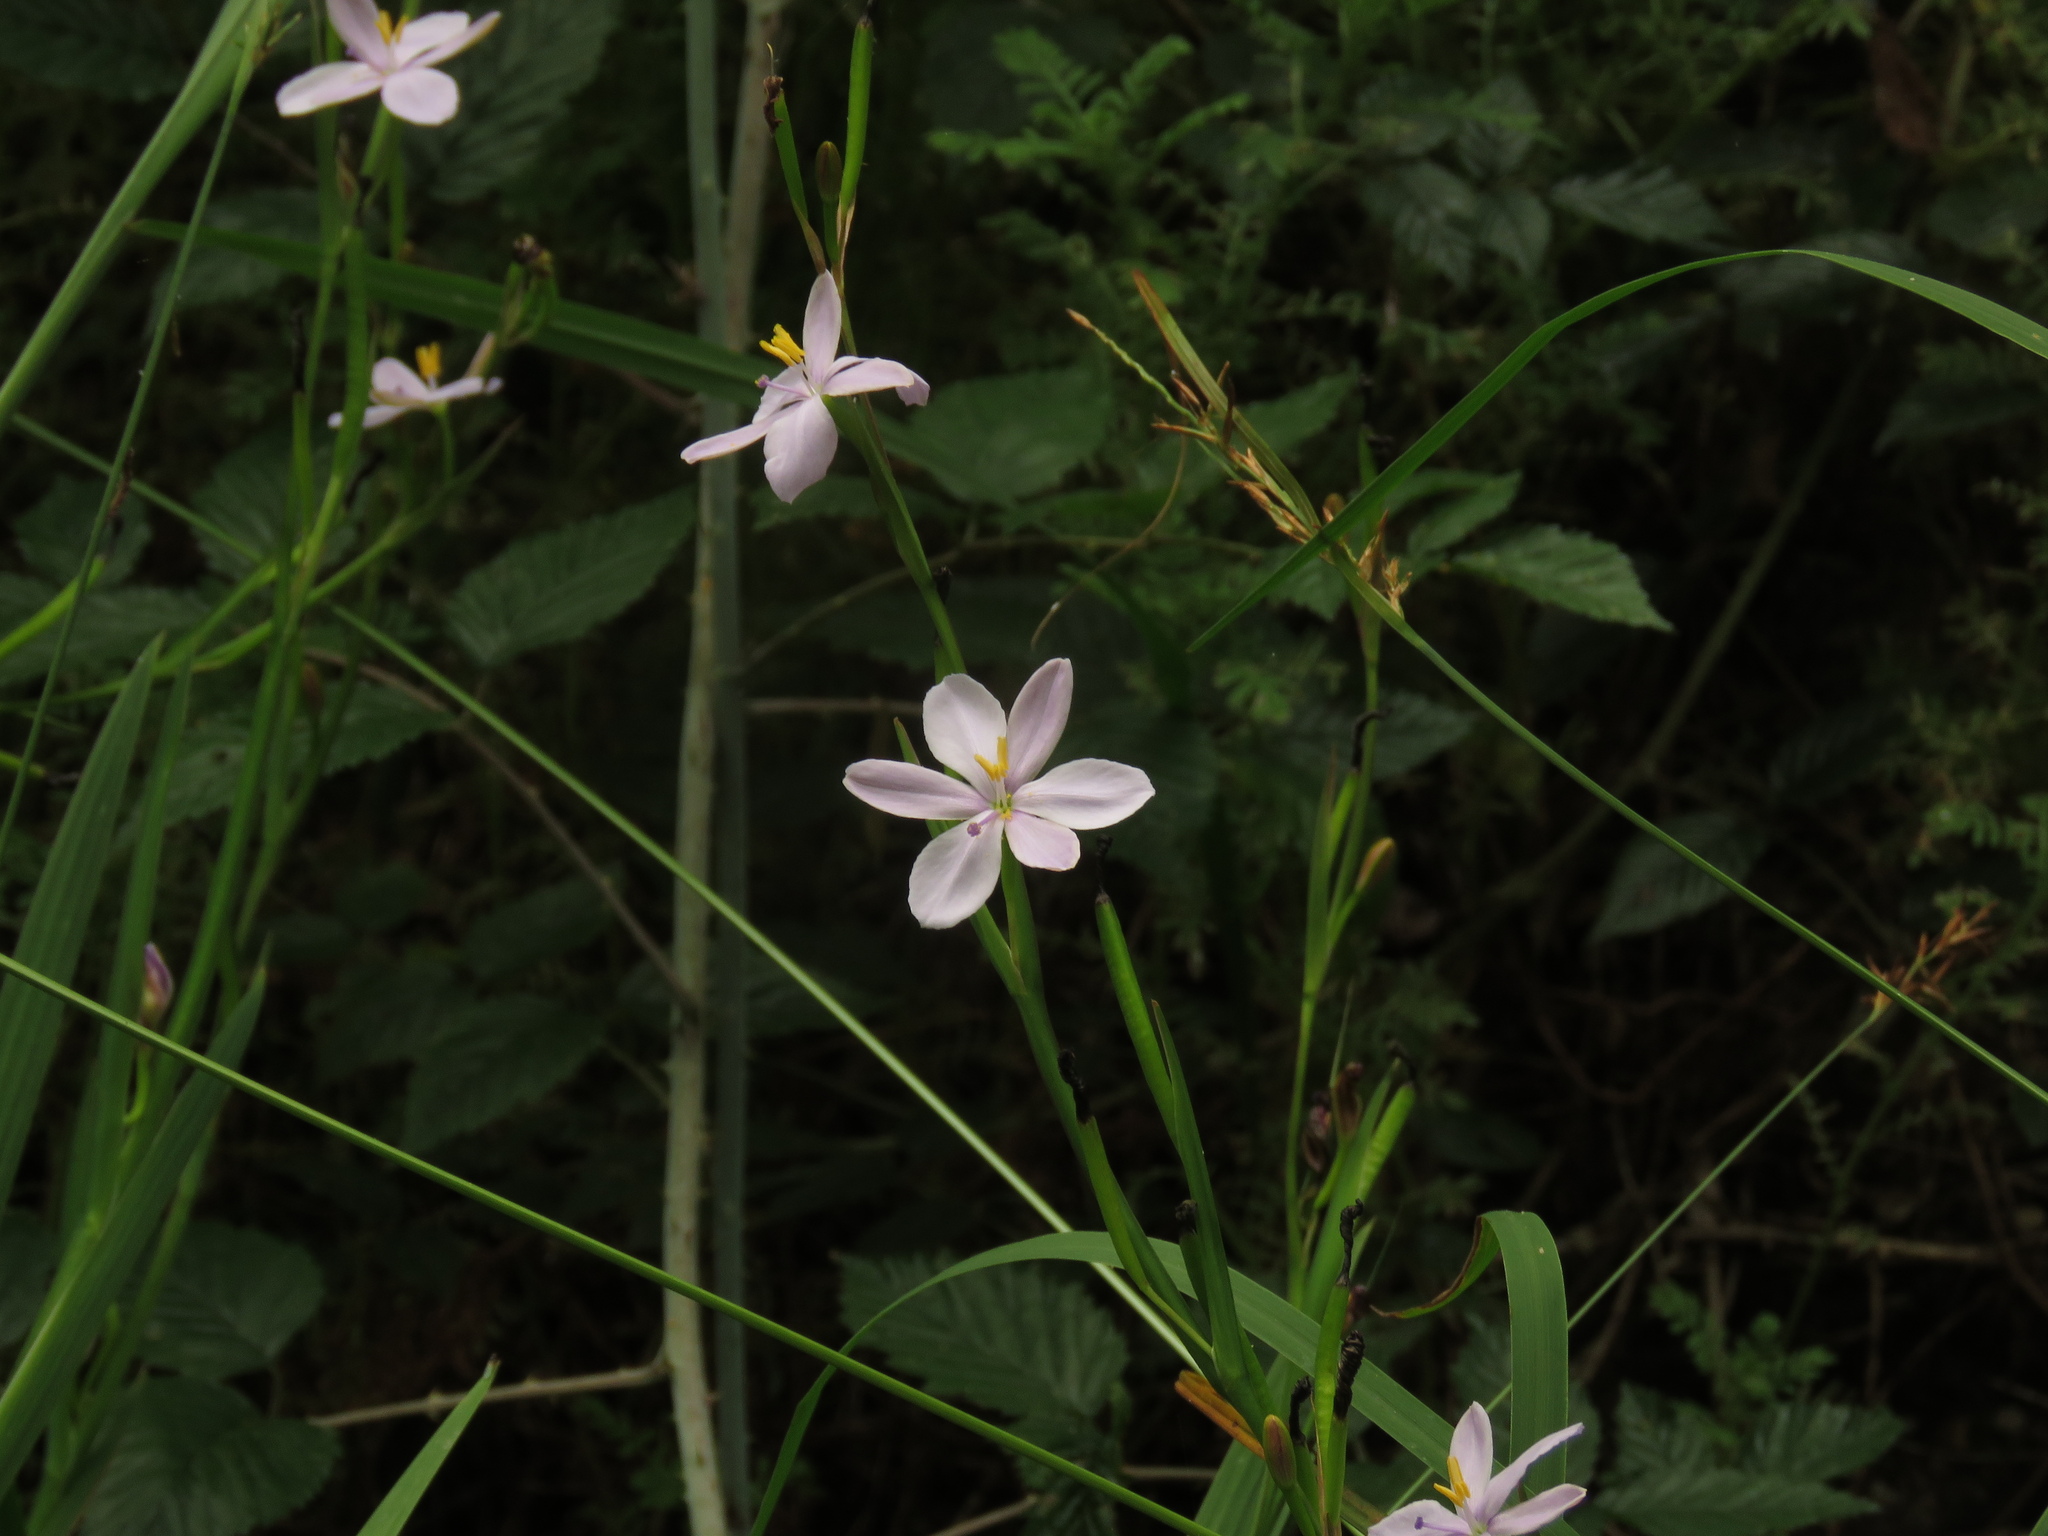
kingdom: Plantae
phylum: Tracheophyta
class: Liliopsida
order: Asparagales
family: Iridaceae
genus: Aristea
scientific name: Aristea ensifolia
